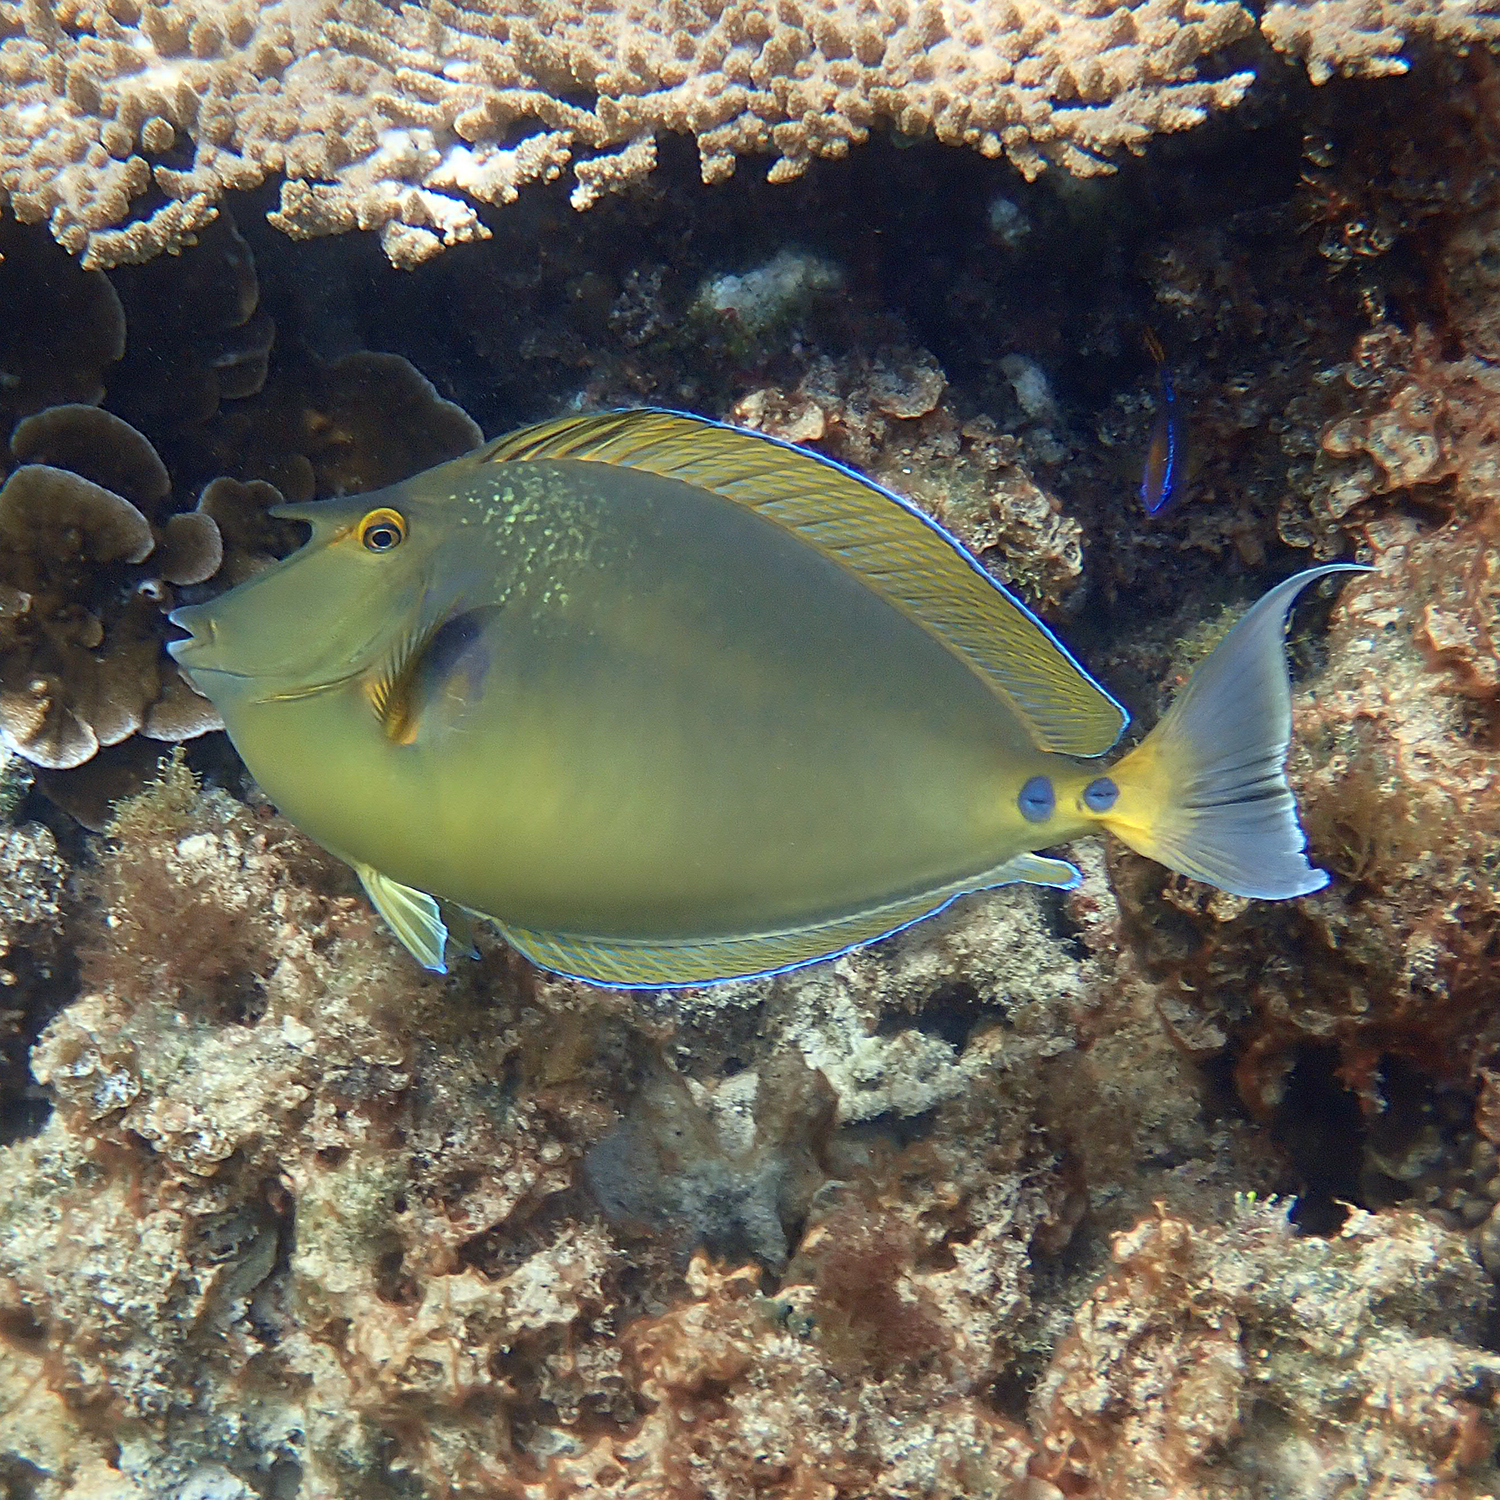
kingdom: Animalia
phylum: Chordata
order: Perciformes
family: Acanthuridae
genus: Naso
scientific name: Naso unicornis
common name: Bluespine unicornfish
